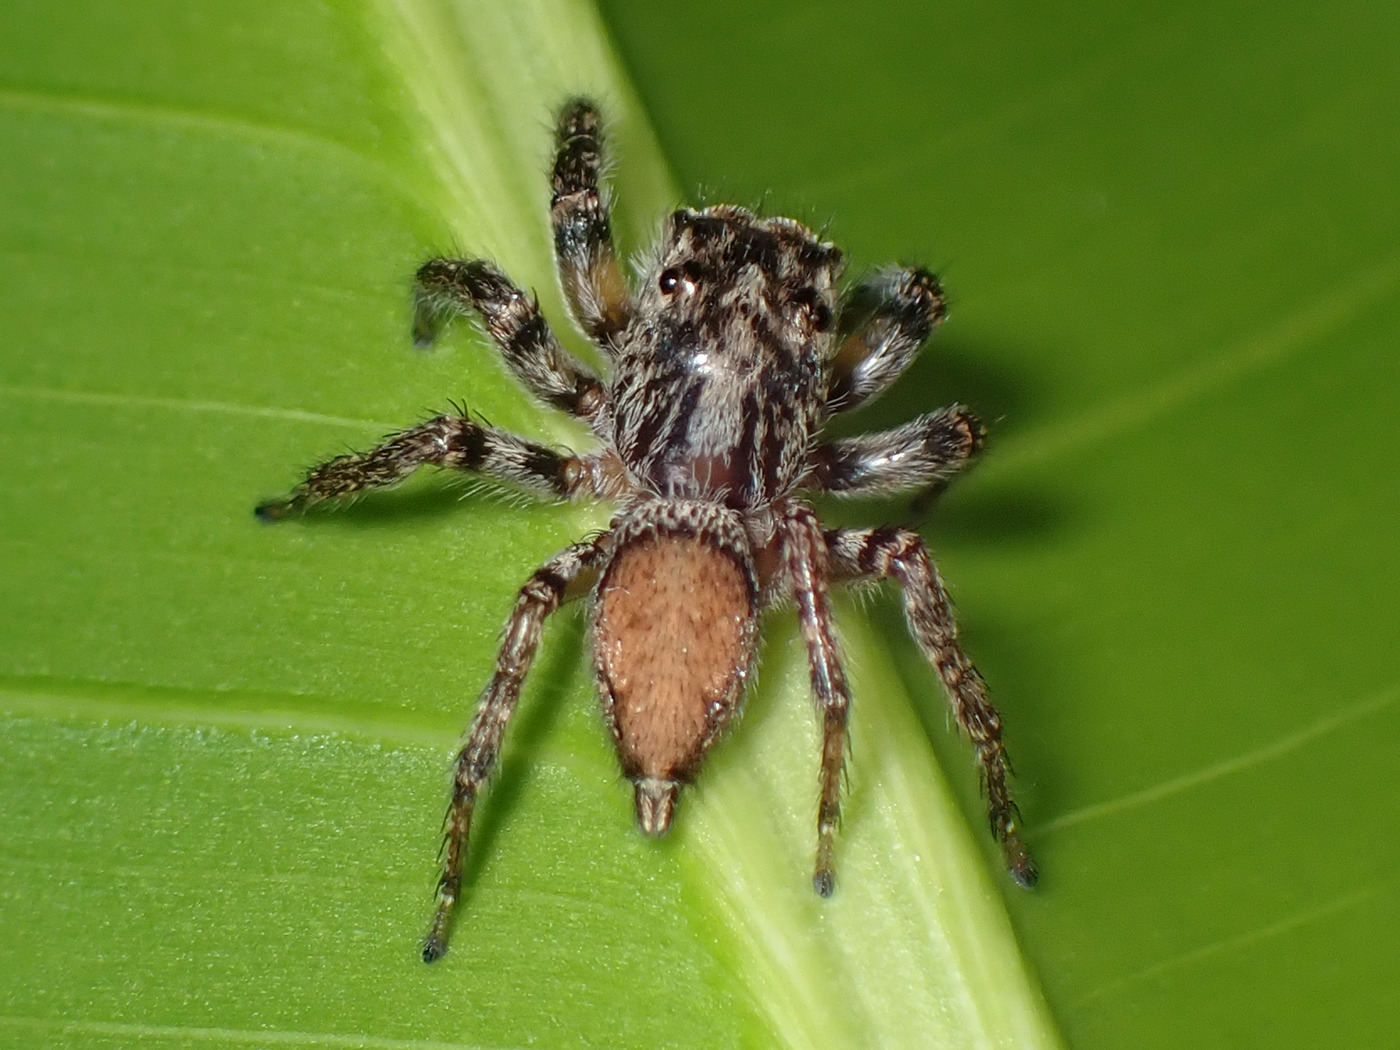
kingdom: Animalia
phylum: Arthropoda
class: Arachnida
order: Araneae
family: Salticidae
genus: Tarkas
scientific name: Tarkas maculatipes
